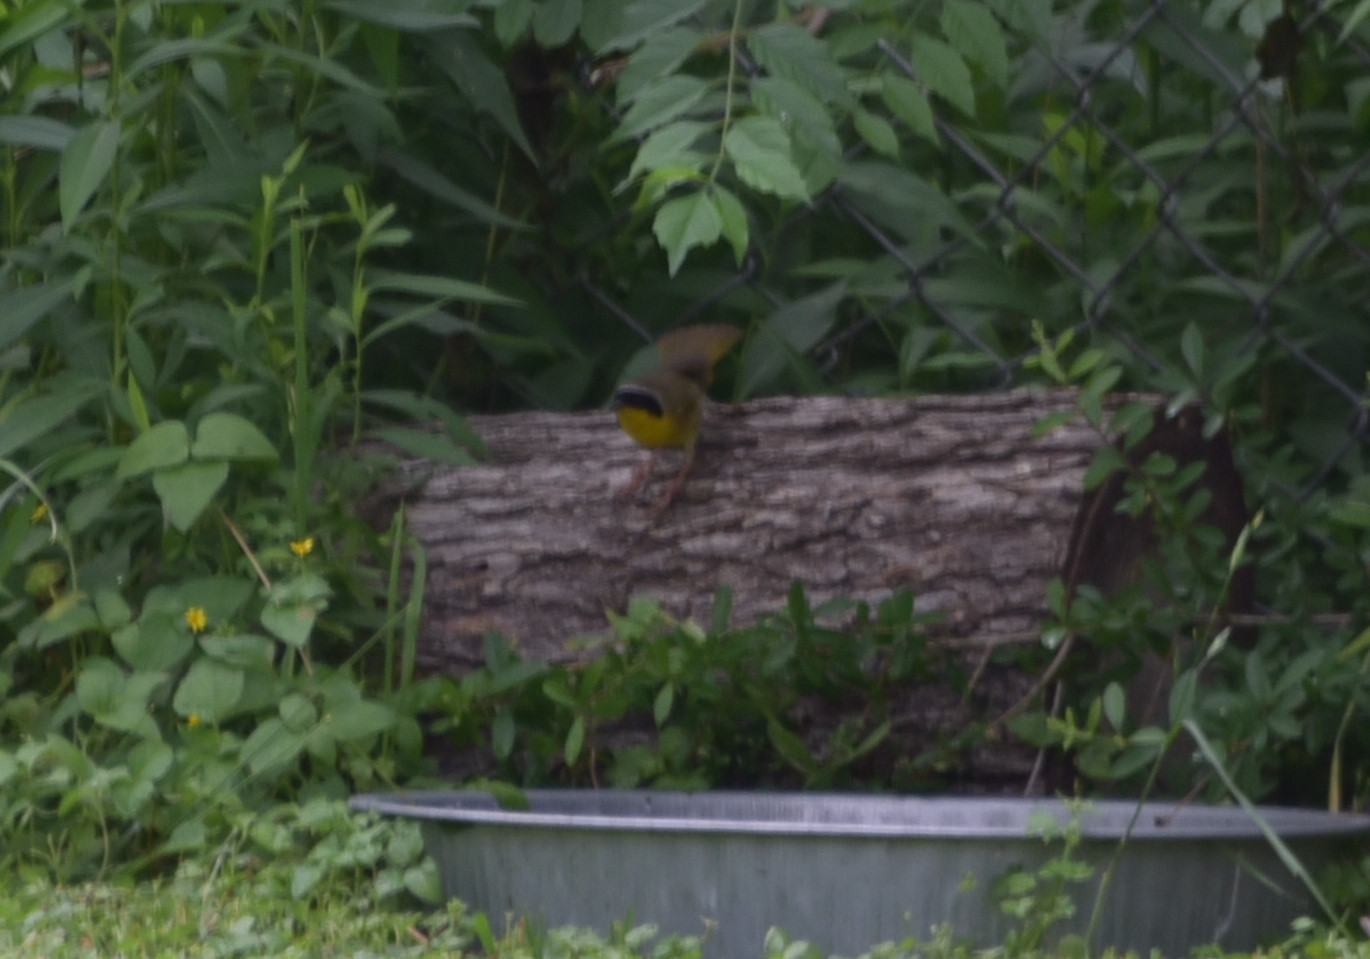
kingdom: Animalia
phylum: Chordata
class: Aves
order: Passeriformes
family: Parulidae
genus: Geothlypis
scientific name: Geothlypis trichas
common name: Common yellowthroat
